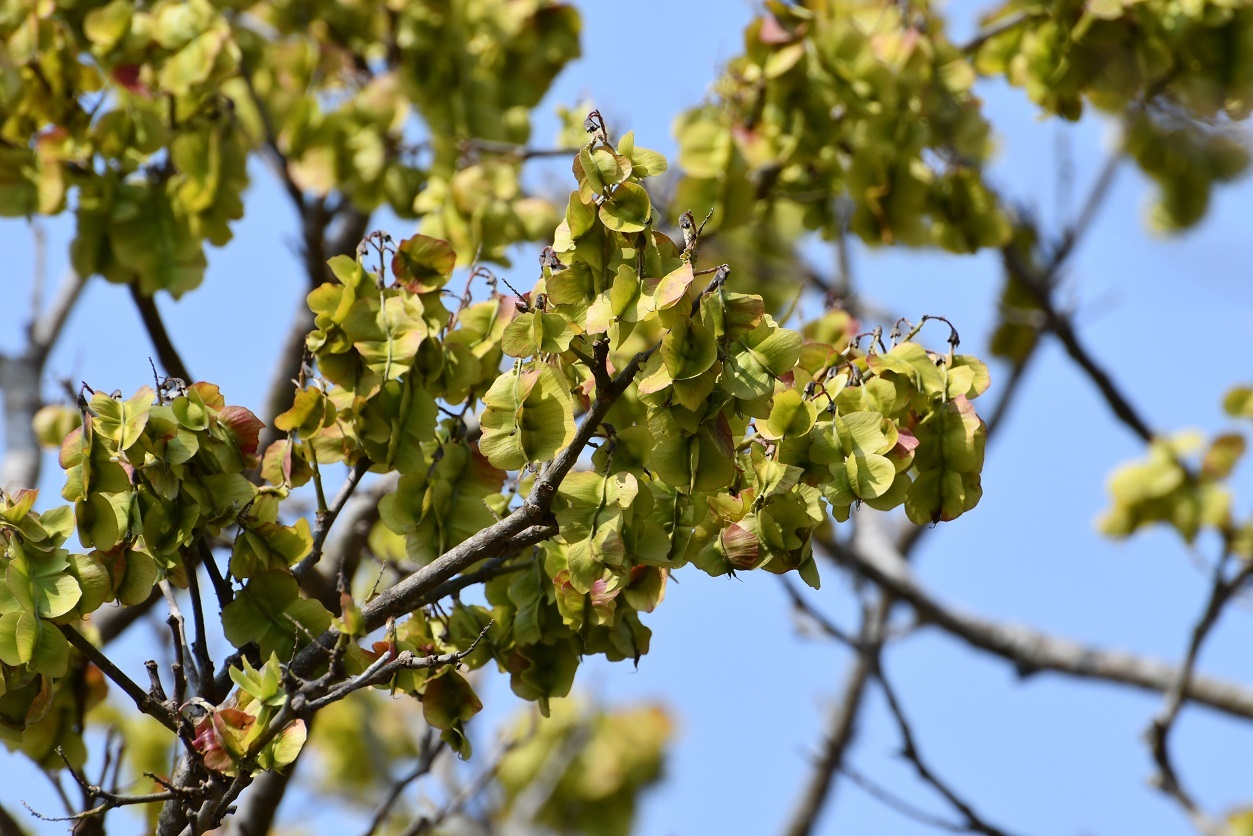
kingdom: Plantae
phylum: Tracheophyta
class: Magnoliopsida
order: Fabales
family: Fabaceae
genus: Piscidia
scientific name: Piscidia piscipula
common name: Florida fishpoison tree
